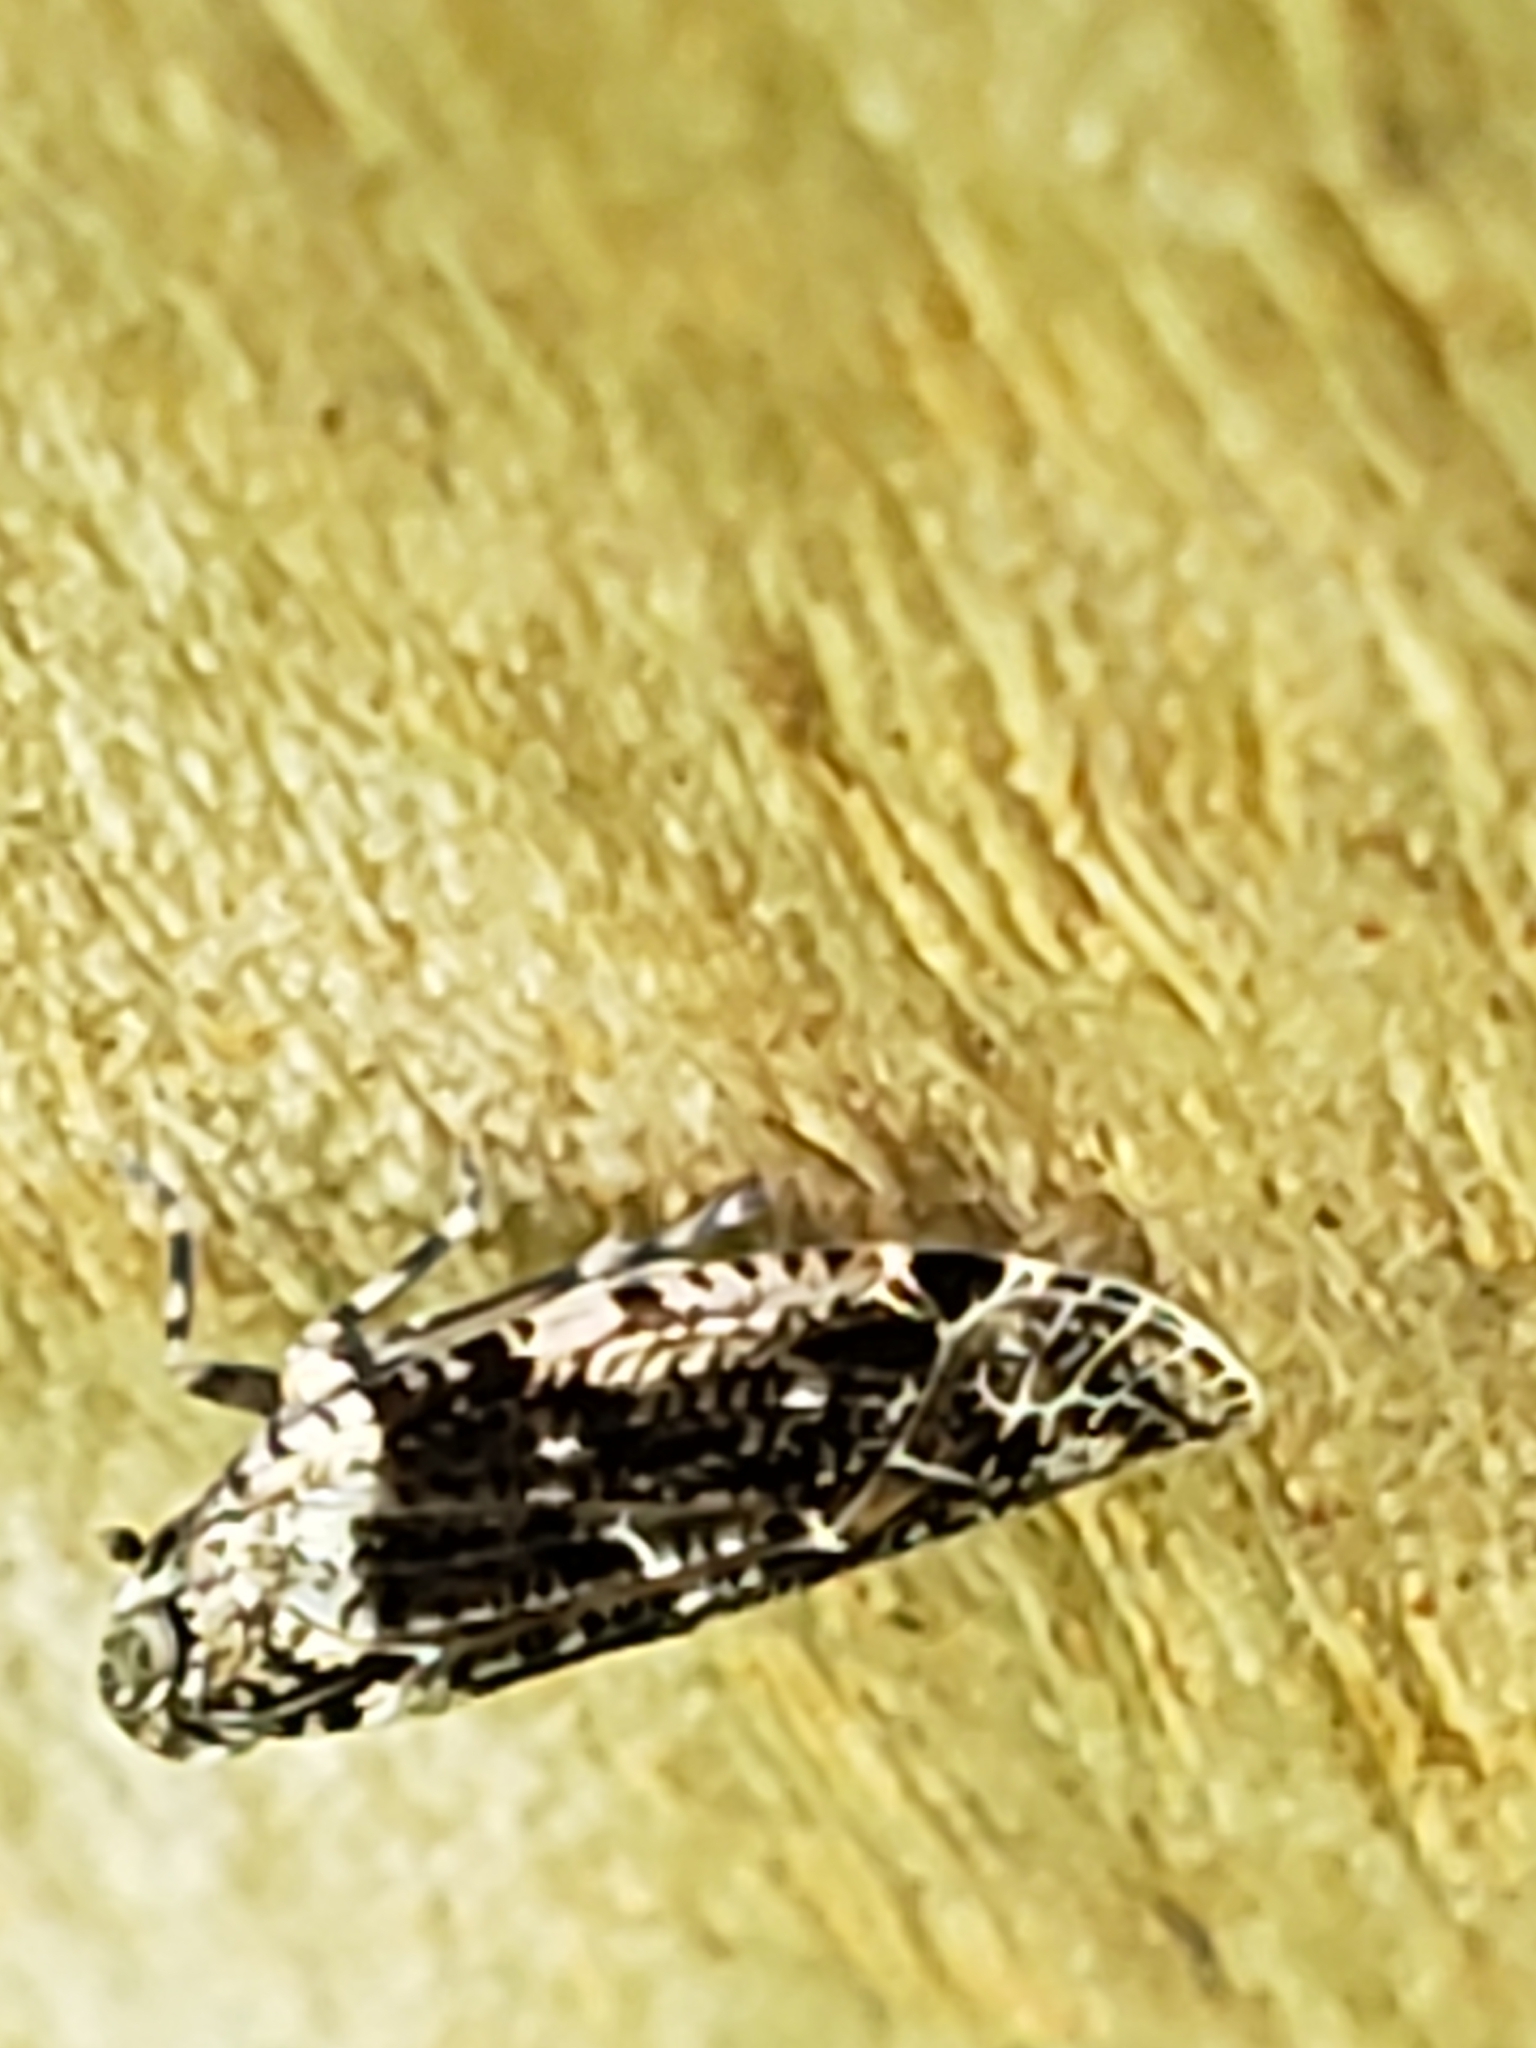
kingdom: Animalia
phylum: Arthropoda
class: Insecta
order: Hemiptera
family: Achilidae
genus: Catonia
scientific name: Catonia nava
